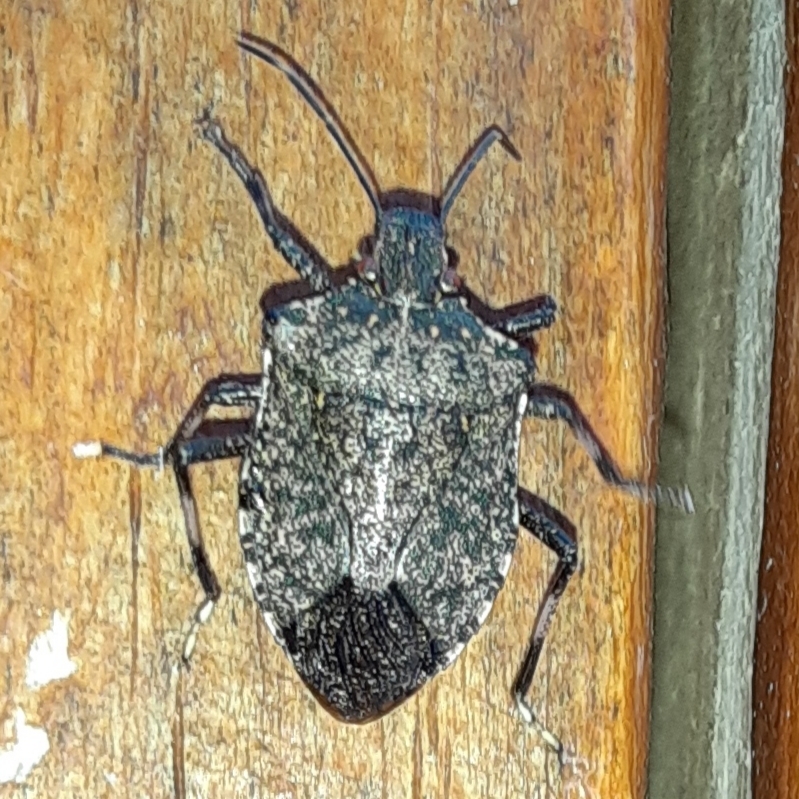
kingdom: Animalia
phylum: Arthropoda
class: Insecta
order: Hemiptera
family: Pentatomidae
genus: Halyomorpha
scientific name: Halyomorpha halys
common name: Brown marmorated stink bug
